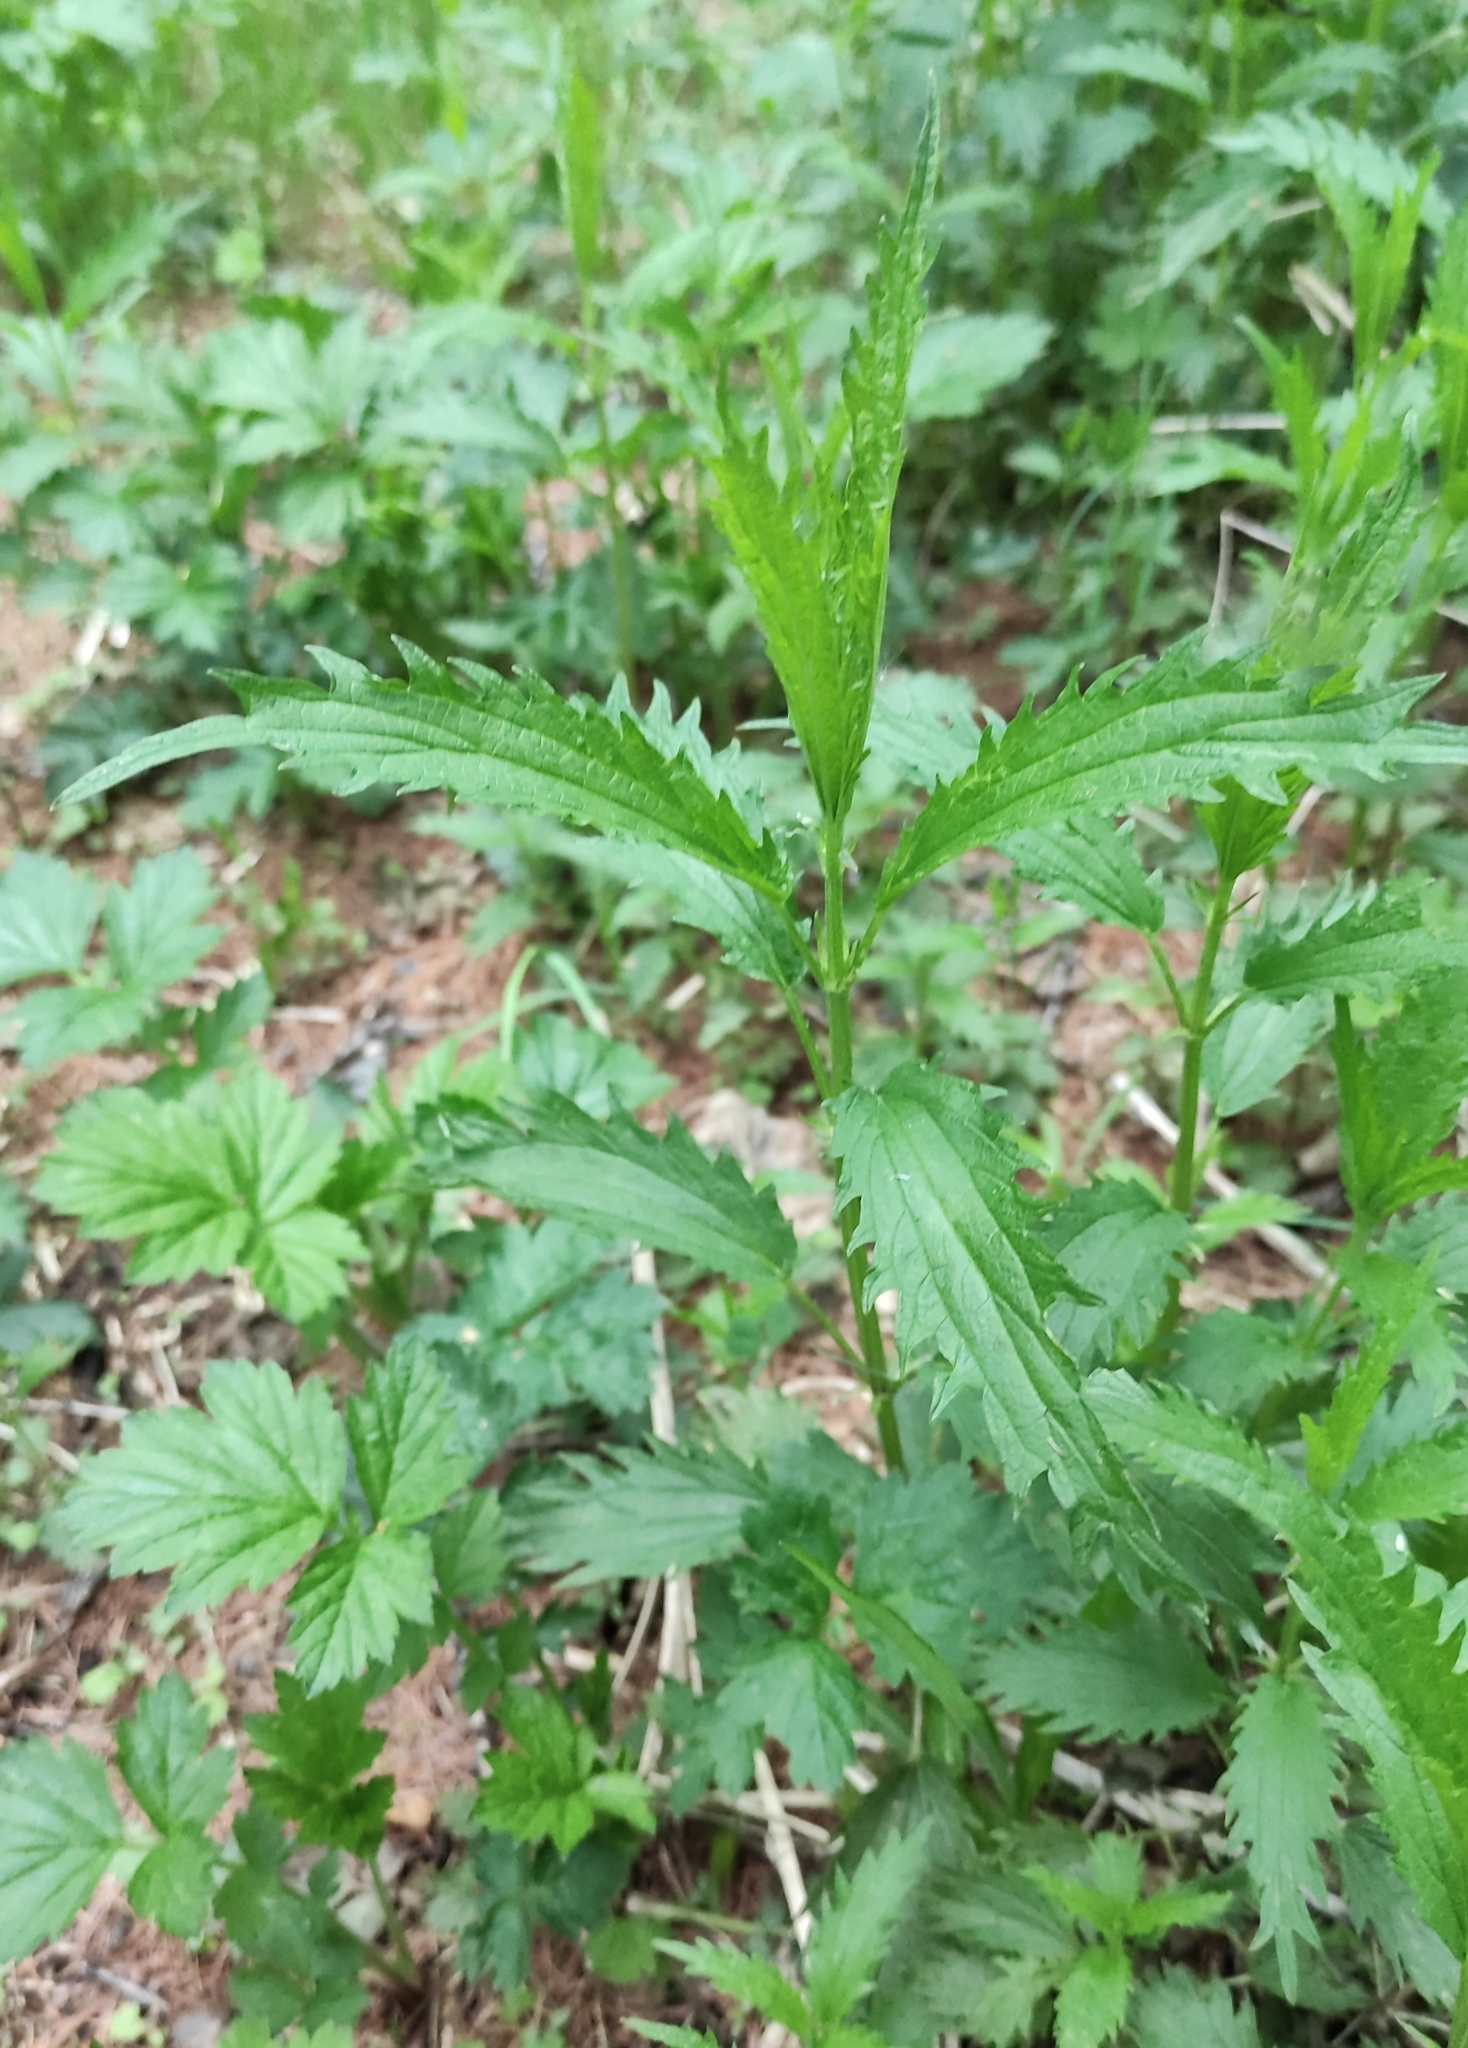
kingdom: Plantae
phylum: Tracheophyta
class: Magnoliopsida
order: Rosales
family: Urticaceae
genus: Urtica
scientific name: Urtica dioica
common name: Common nettle
